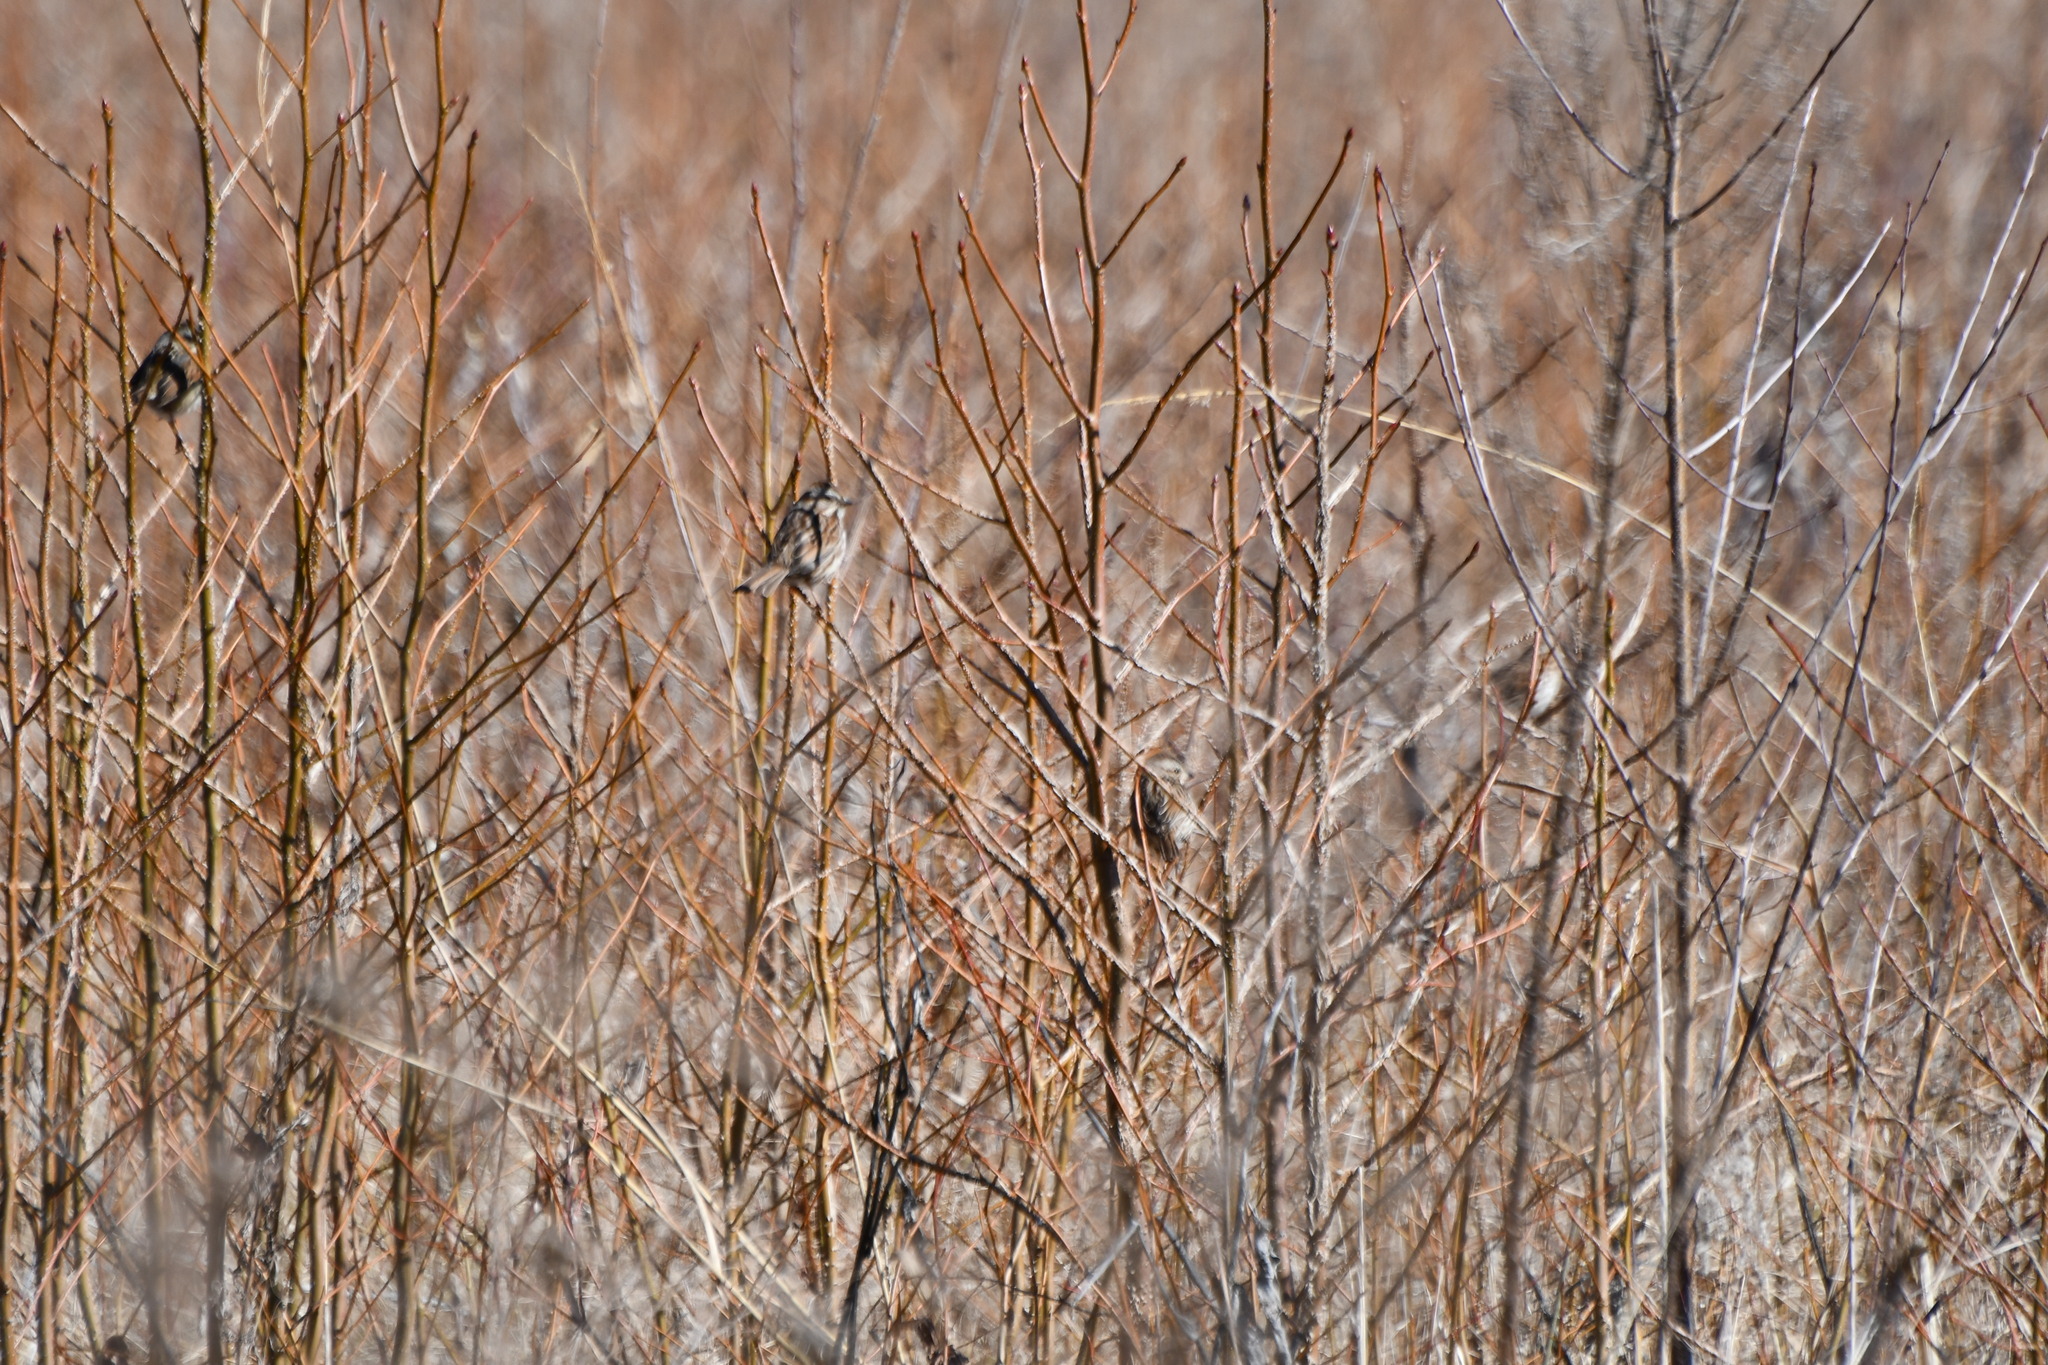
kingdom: Animalia
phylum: Chordata
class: Aves
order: Passeriformes
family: Passerellidae
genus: Melospiza
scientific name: Melospiza melodia
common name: Song sparrow
